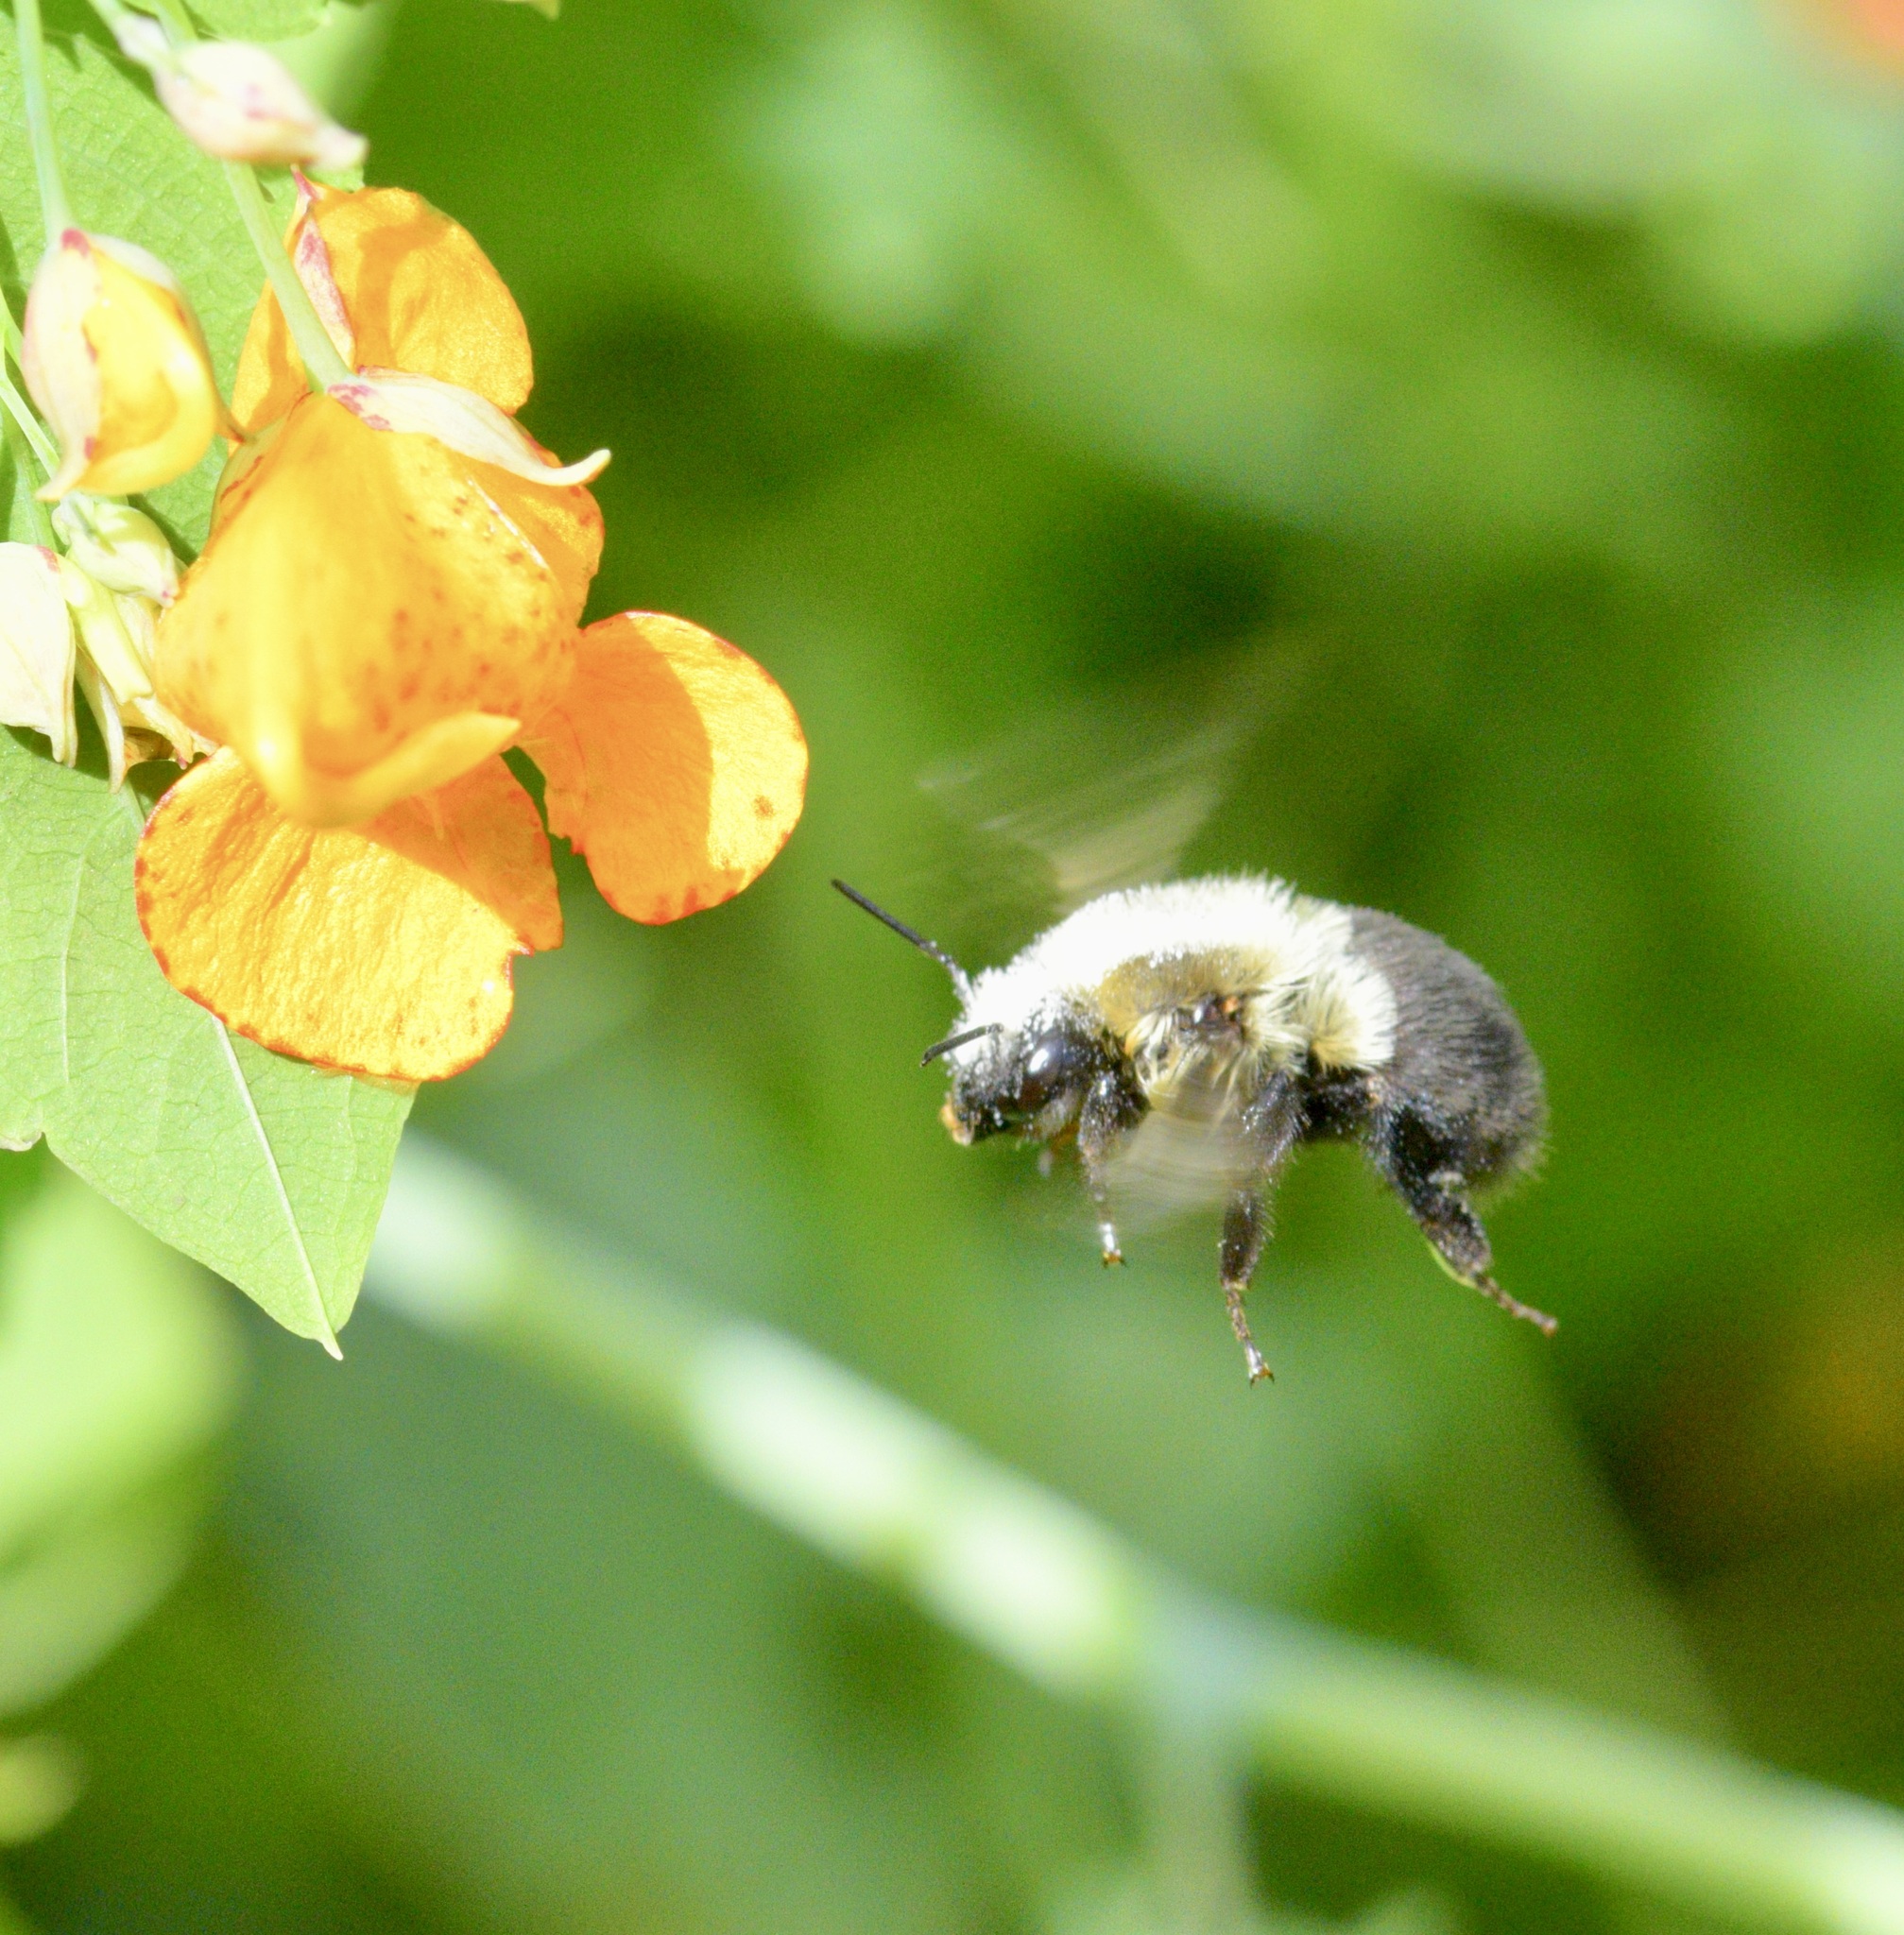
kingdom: Animalia
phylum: Arthropoda
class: Insecta
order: Hymenoptera
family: Apidae
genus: Bombus
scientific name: Bombus impatiens
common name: Common eastern bumble bee
